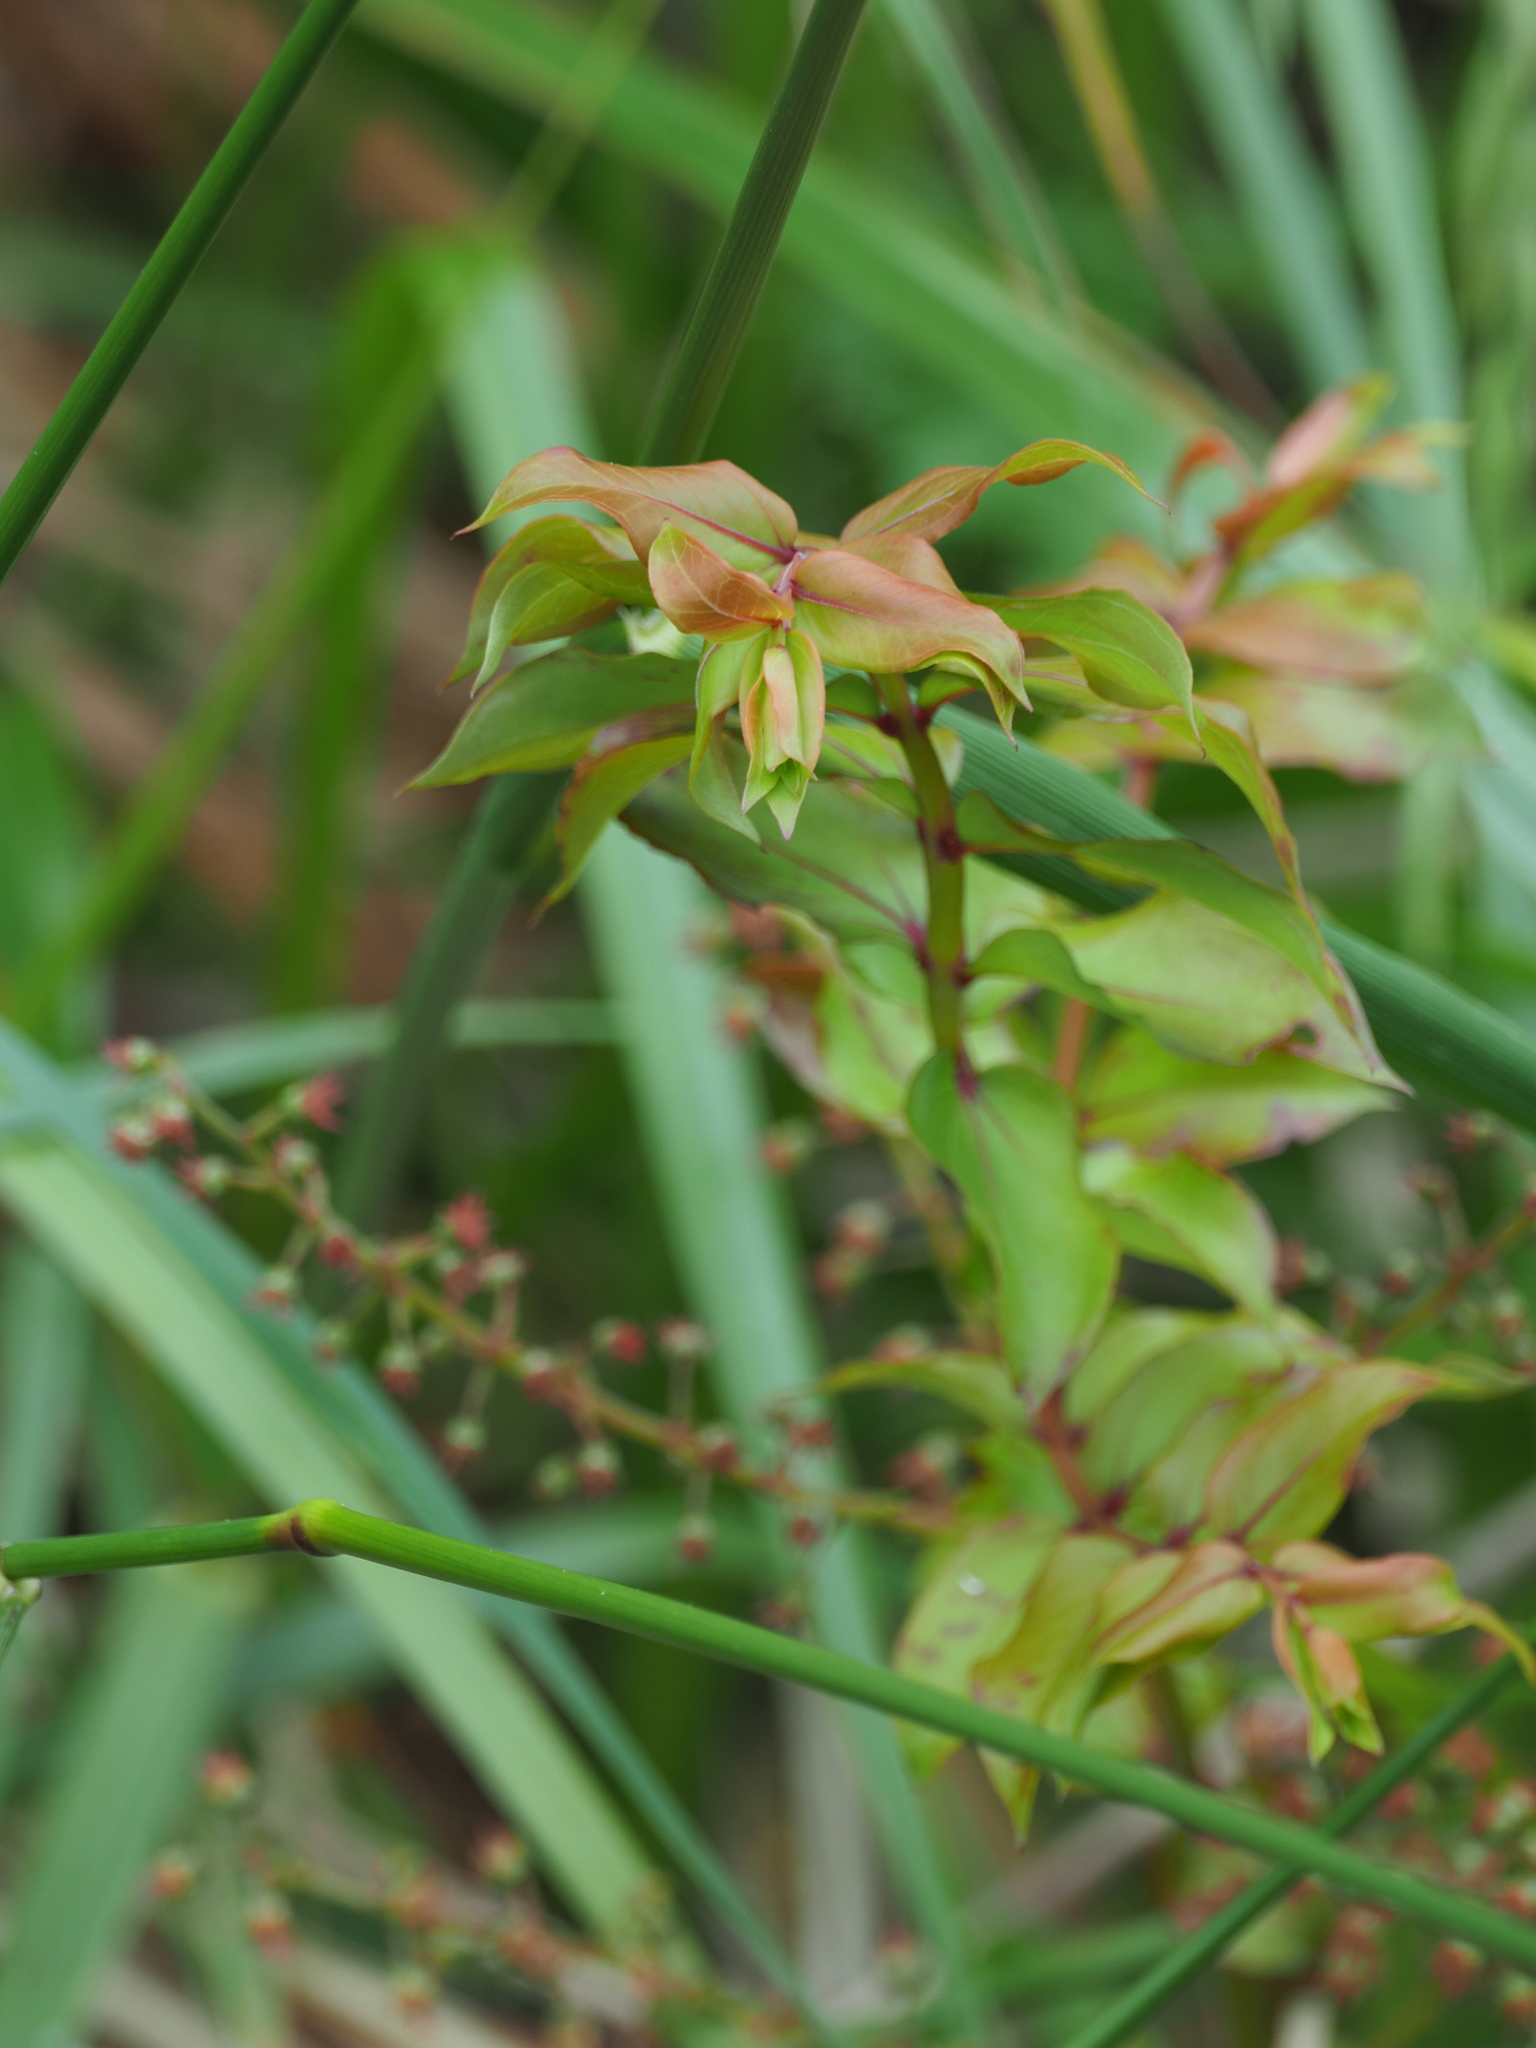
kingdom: Plantae
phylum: Tracheophyta
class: Magnoliopsida
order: Cucurbitales
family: Coriariaceae
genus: Coriaria
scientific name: Coriaria sarmentosa
